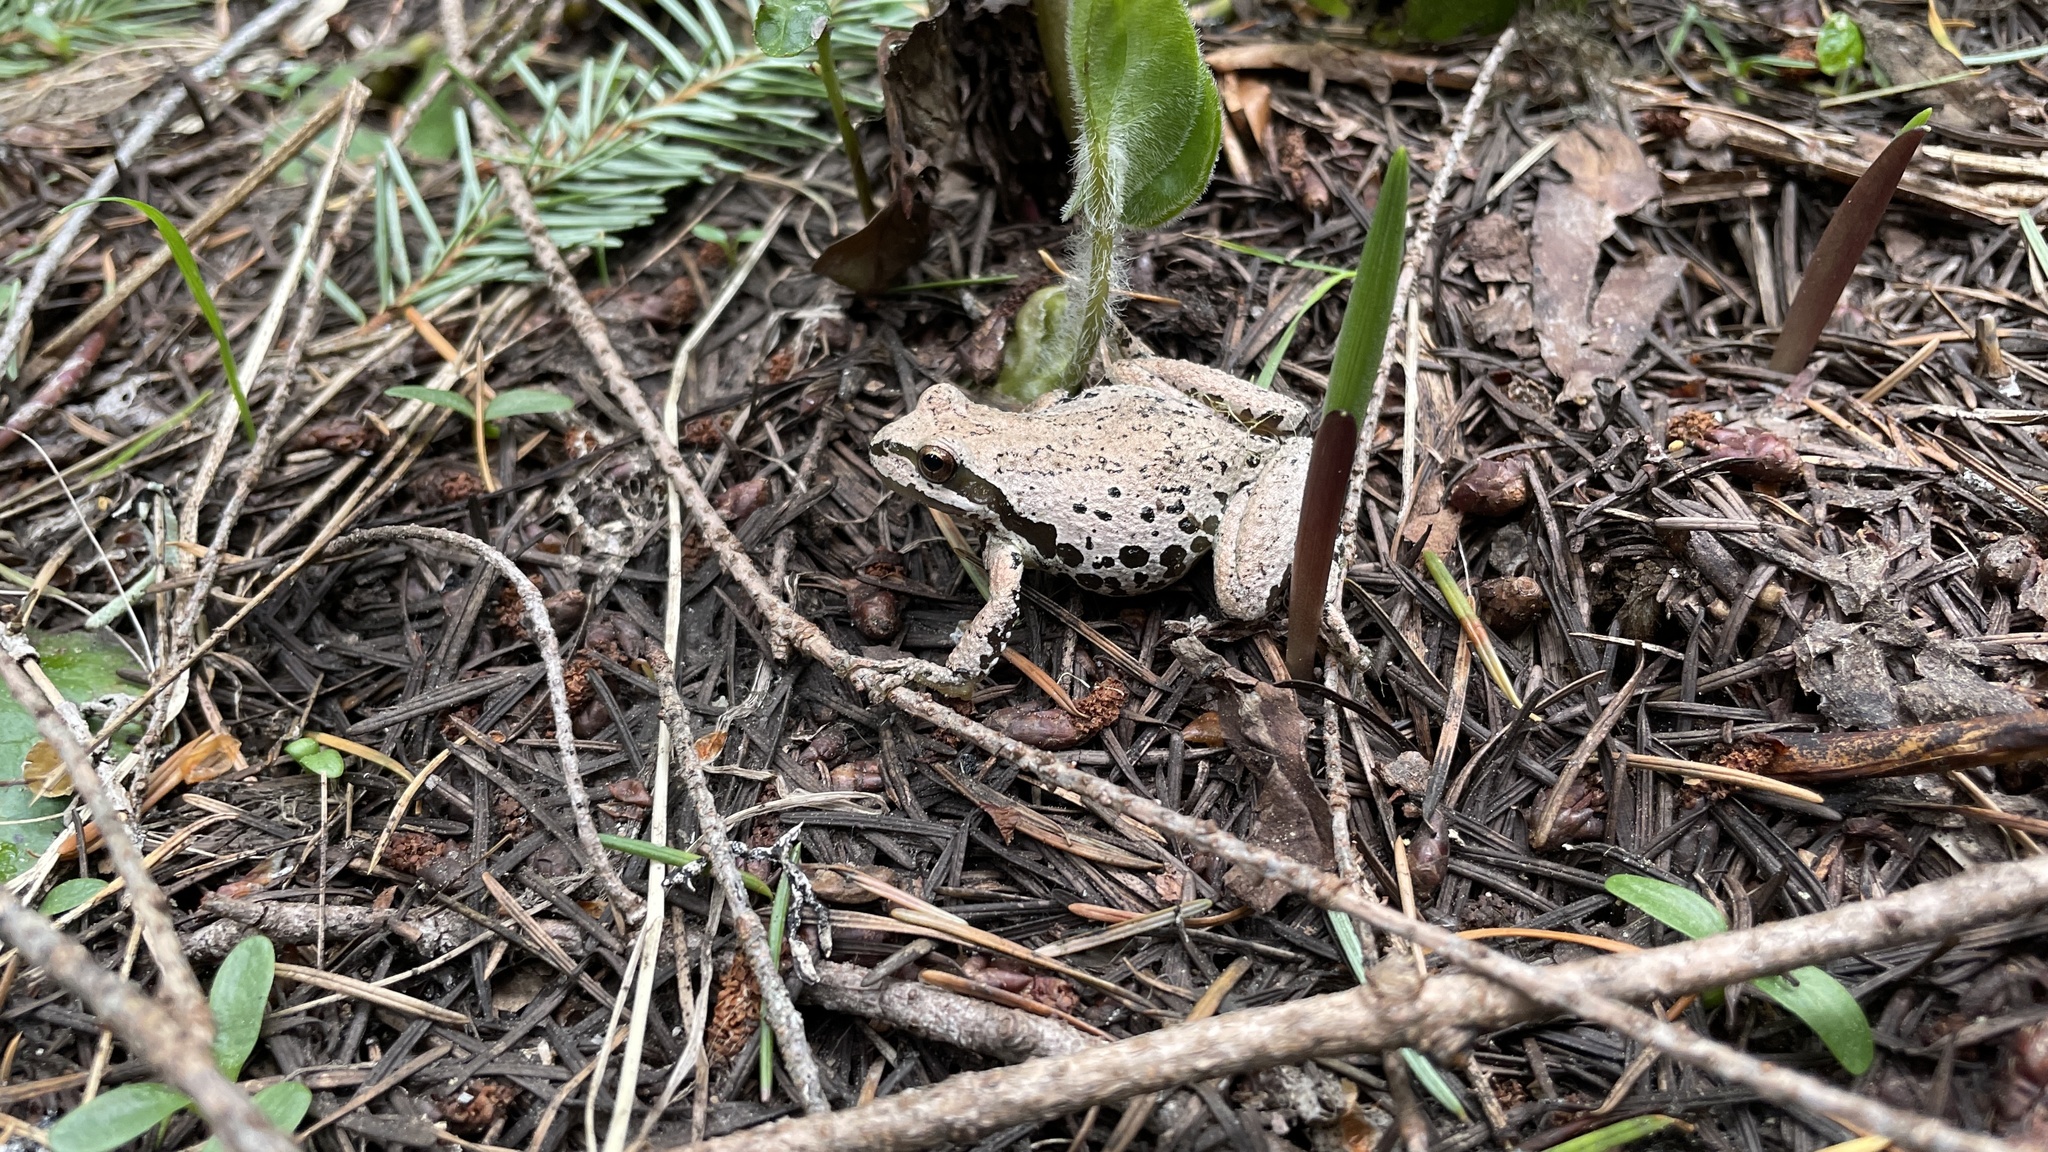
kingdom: Animalia
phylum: Chordata
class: Amphibia
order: Anura
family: Hylidae
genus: Pseudacris
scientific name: Pseudacris regilla
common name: Pacific chorus frog
